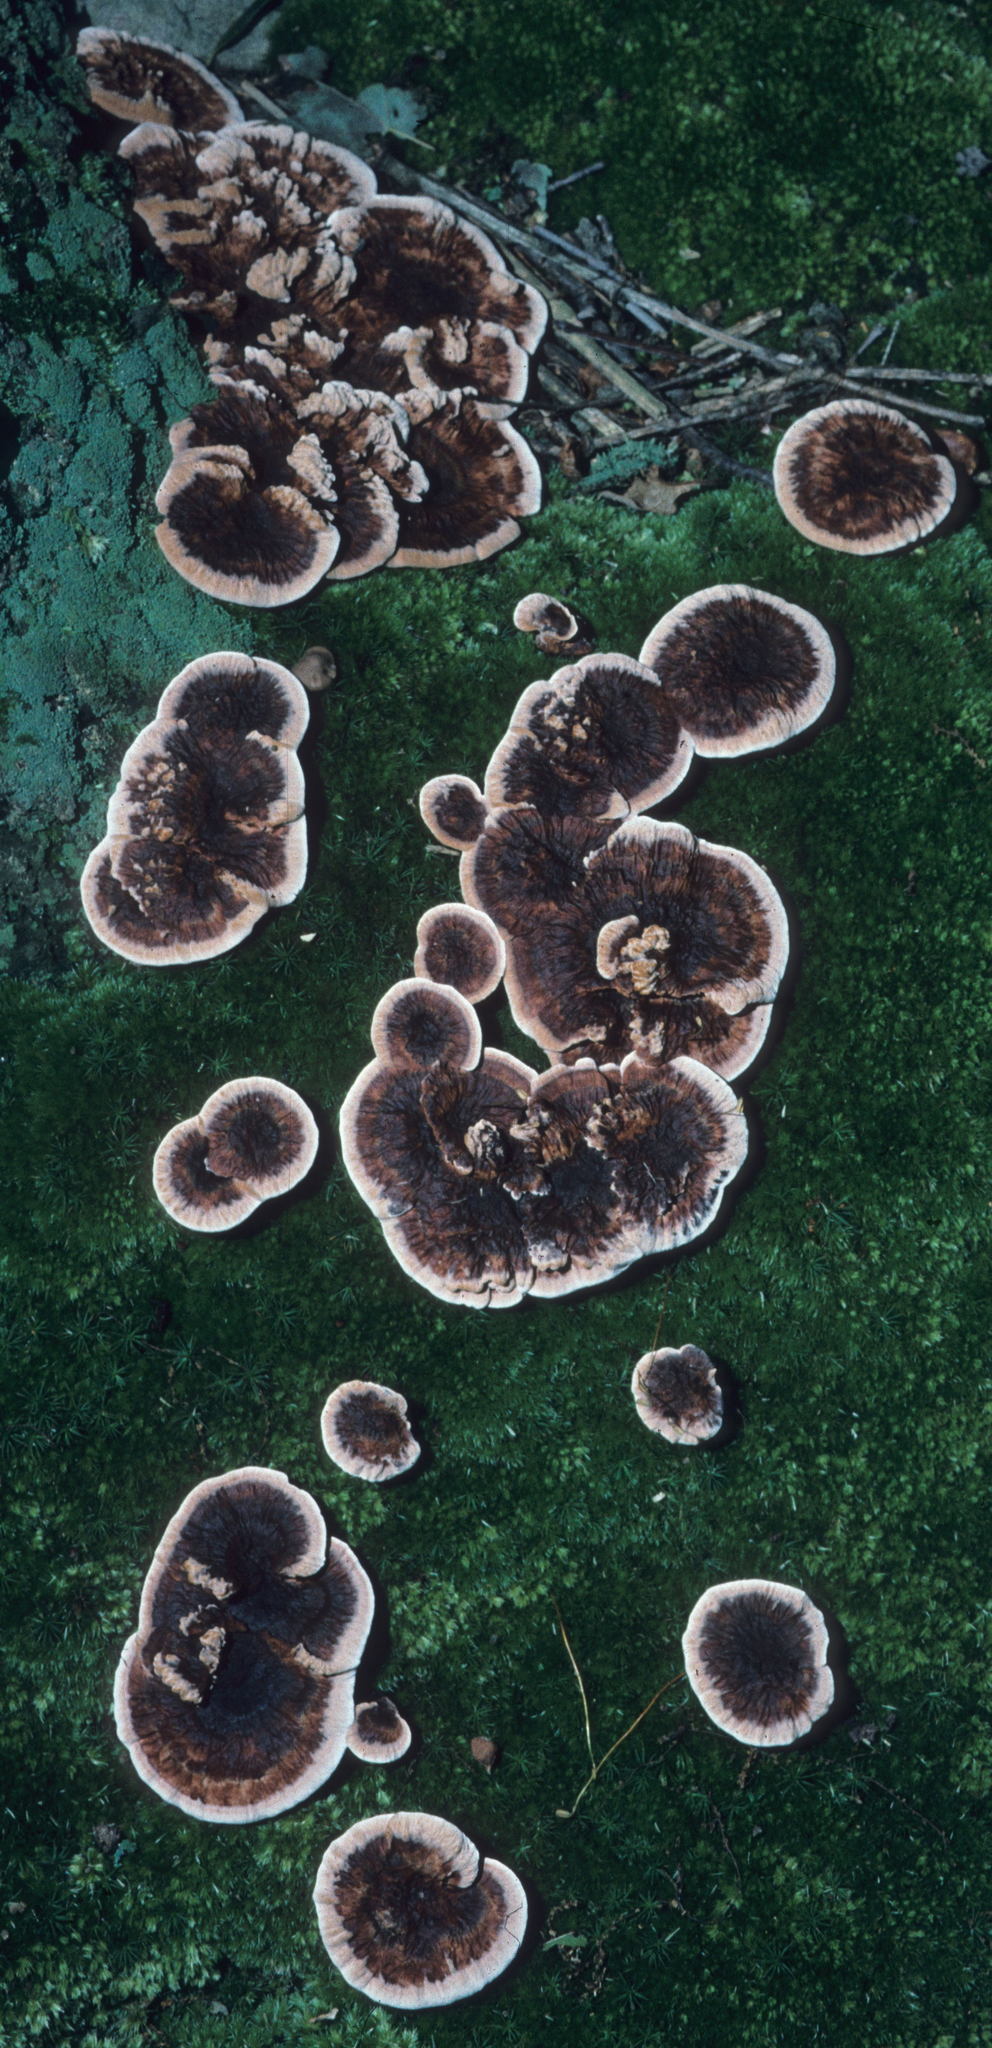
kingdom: Fungi
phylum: Basidiomycota
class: Agaricomycetes
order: Thelephorales
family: Bankeraceae
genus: Hydnellum
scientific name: Hydnellum scrobiculatum
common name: Ridged tooth
